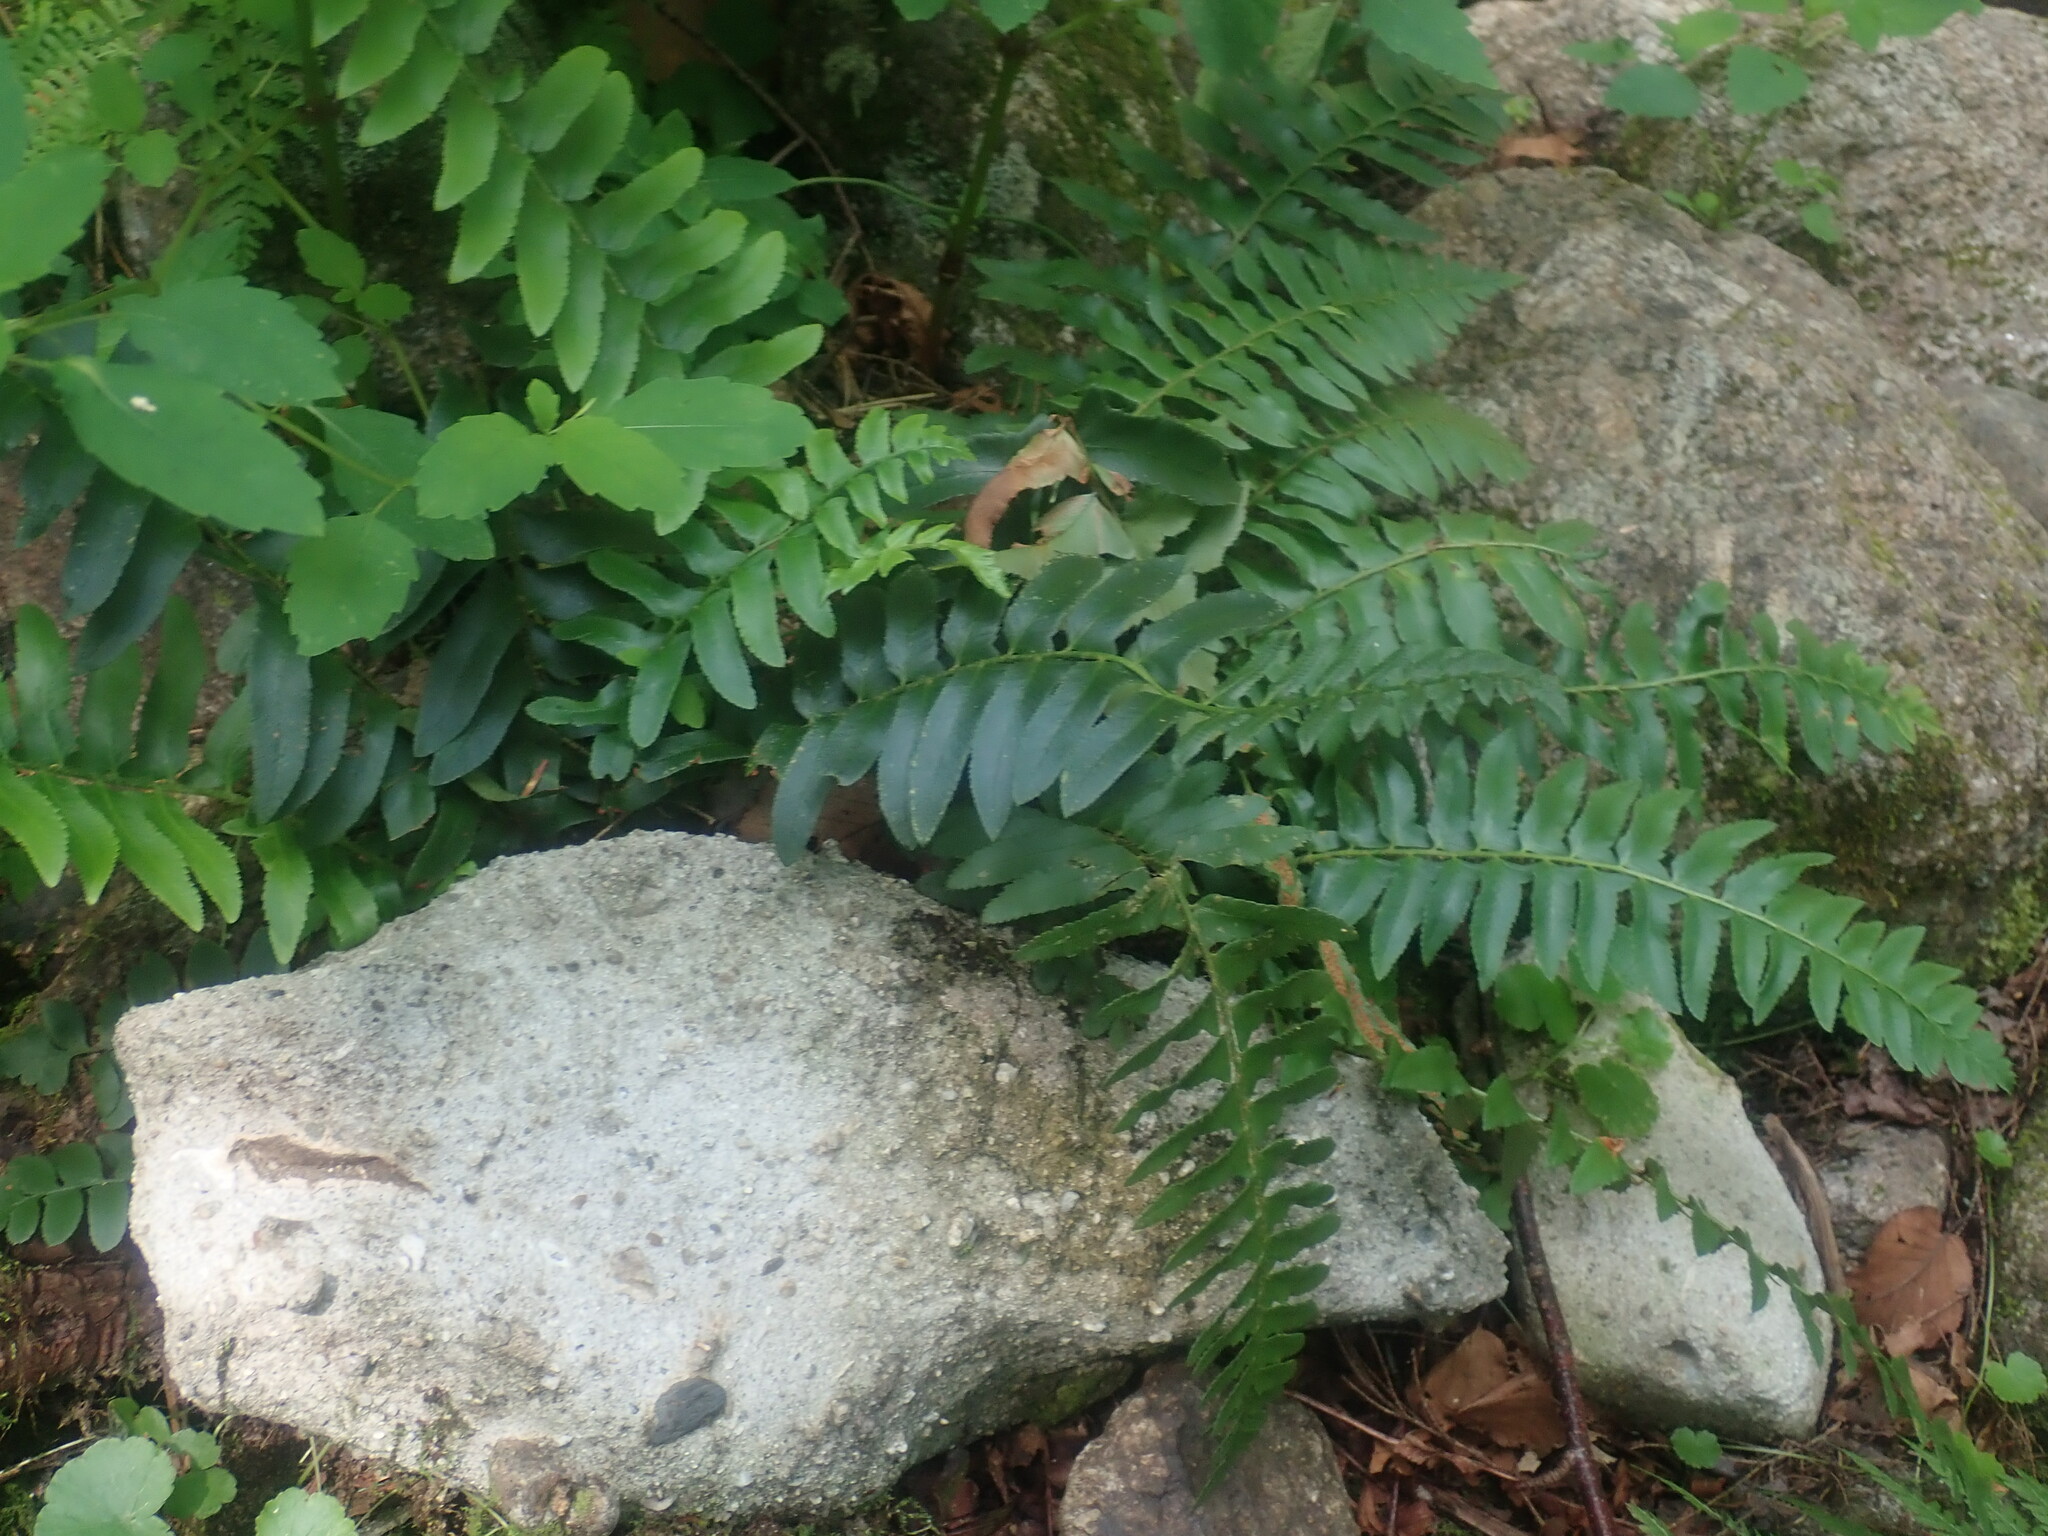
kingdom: Plantae
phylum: Tracheophyta
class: Polypodiopsida
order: Polypodiales
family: Dryopteridaceae
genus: Polystichum
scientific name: Polystichum acrostichoides
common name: Christmas fern
